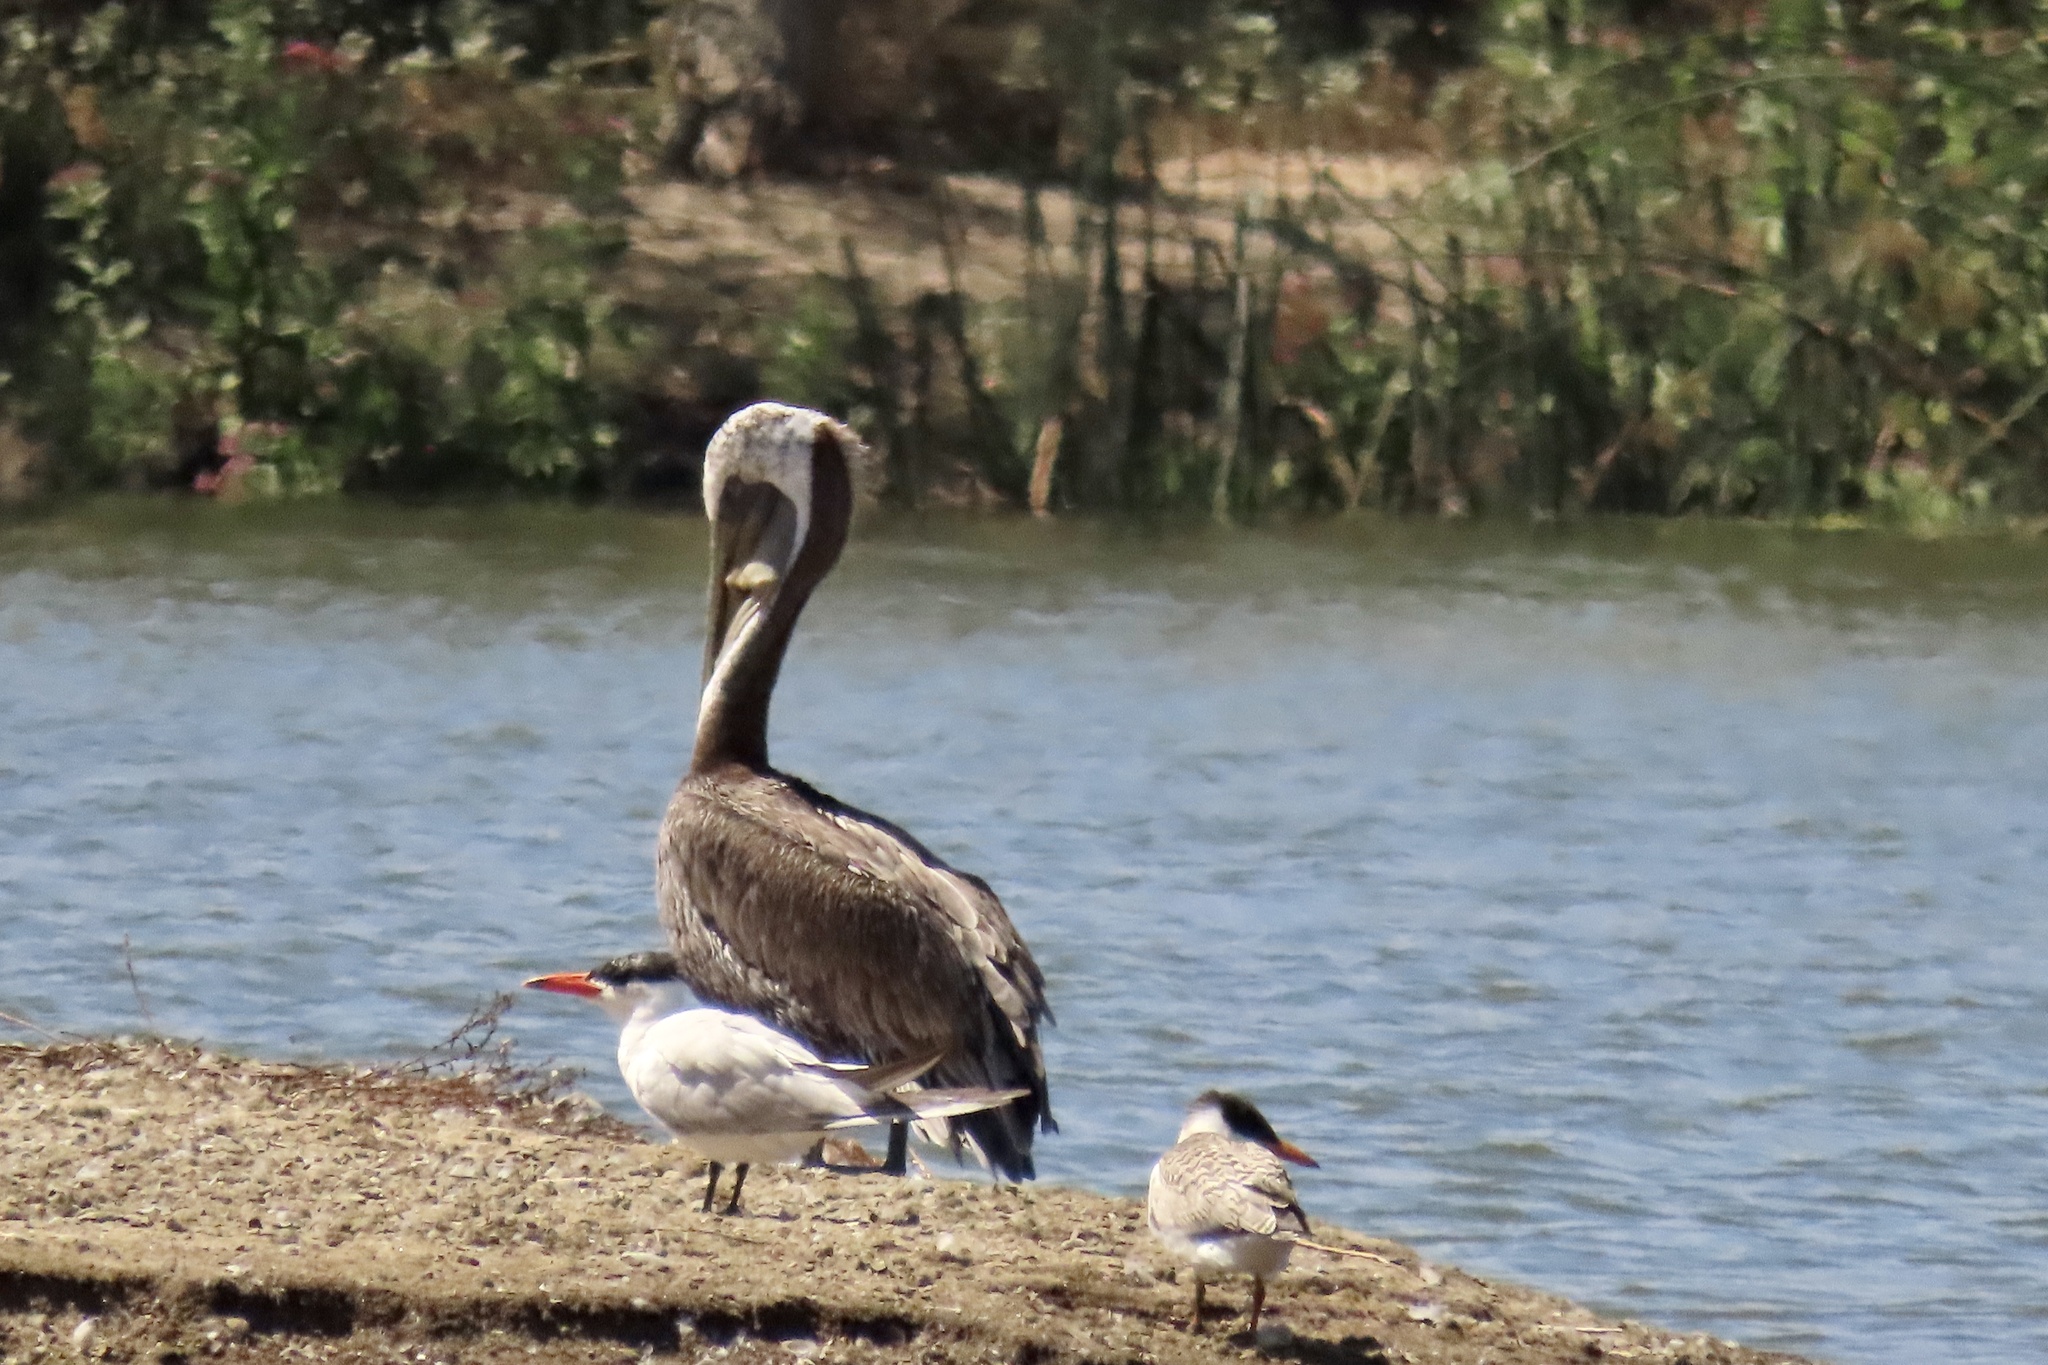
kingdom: Animalia
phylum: Chordata
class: Aves
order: Pelecaniformes
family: Pelecanidae
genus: Pelecanus
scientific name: Pelecanus occidentalis
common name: Brown pelican
